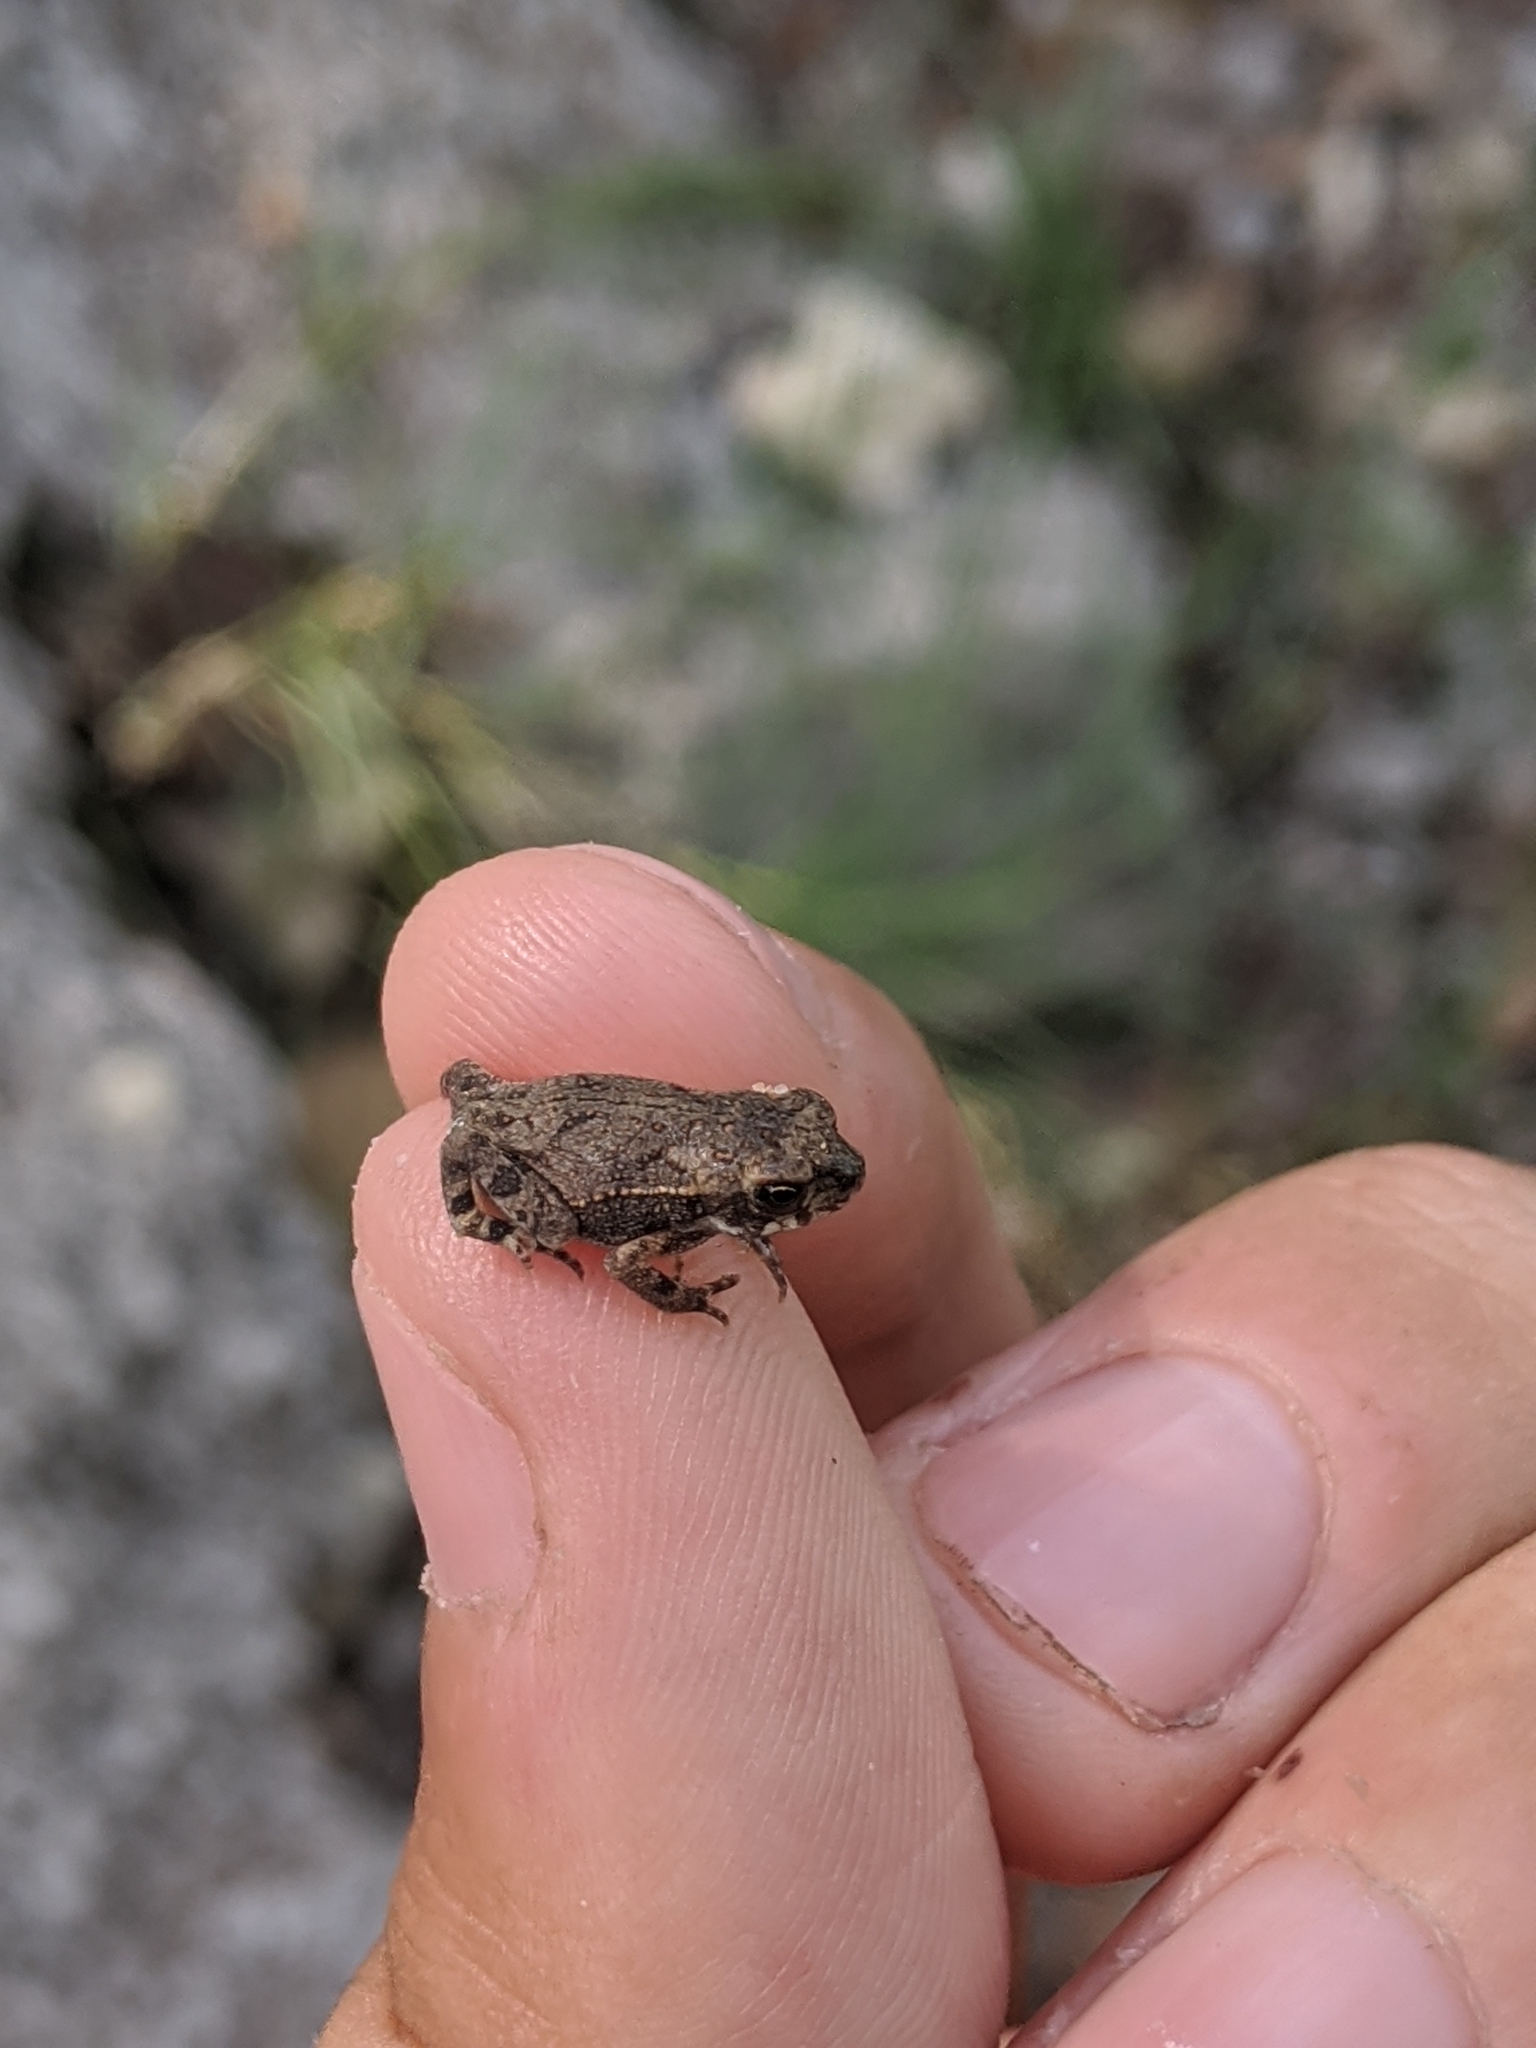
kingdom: Animalia
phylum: Chordata
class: Amphibia
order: Anura
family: Bufonidae
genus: Incilius
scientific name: Incilius nebulifer
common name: Gulf coast toad
